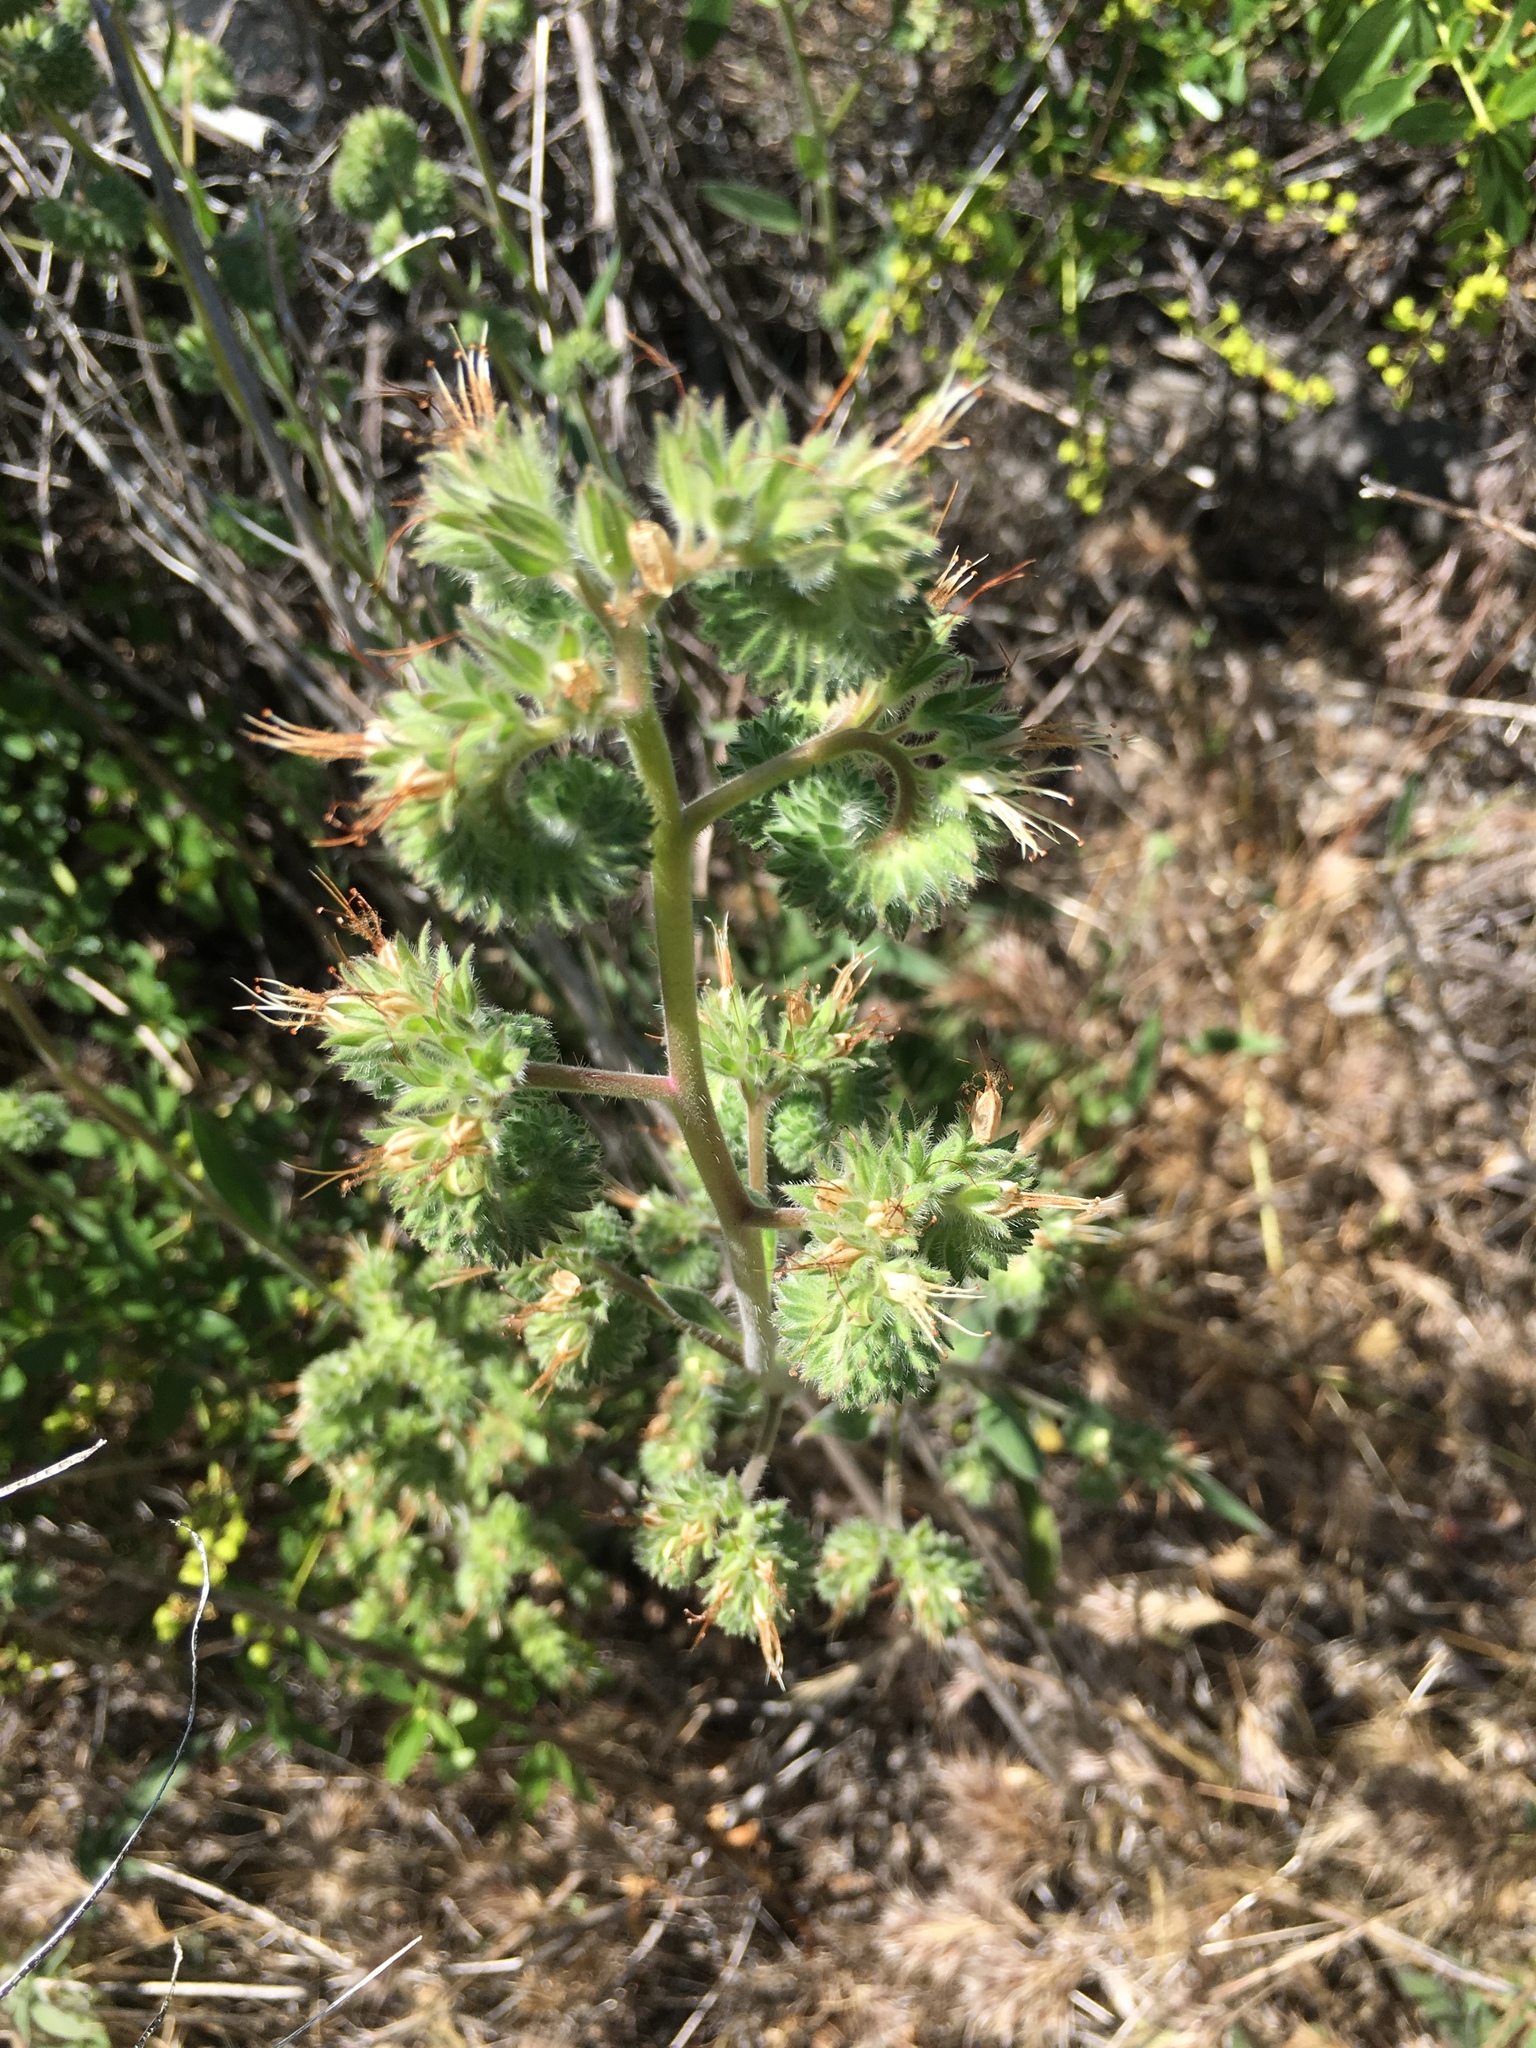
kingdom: Plantae
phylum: Tracheophyta
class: Magnoliopsida
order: Boraginales
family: Hydrophyllaceae
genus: Phacelia
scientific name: Phacelia imbricata
